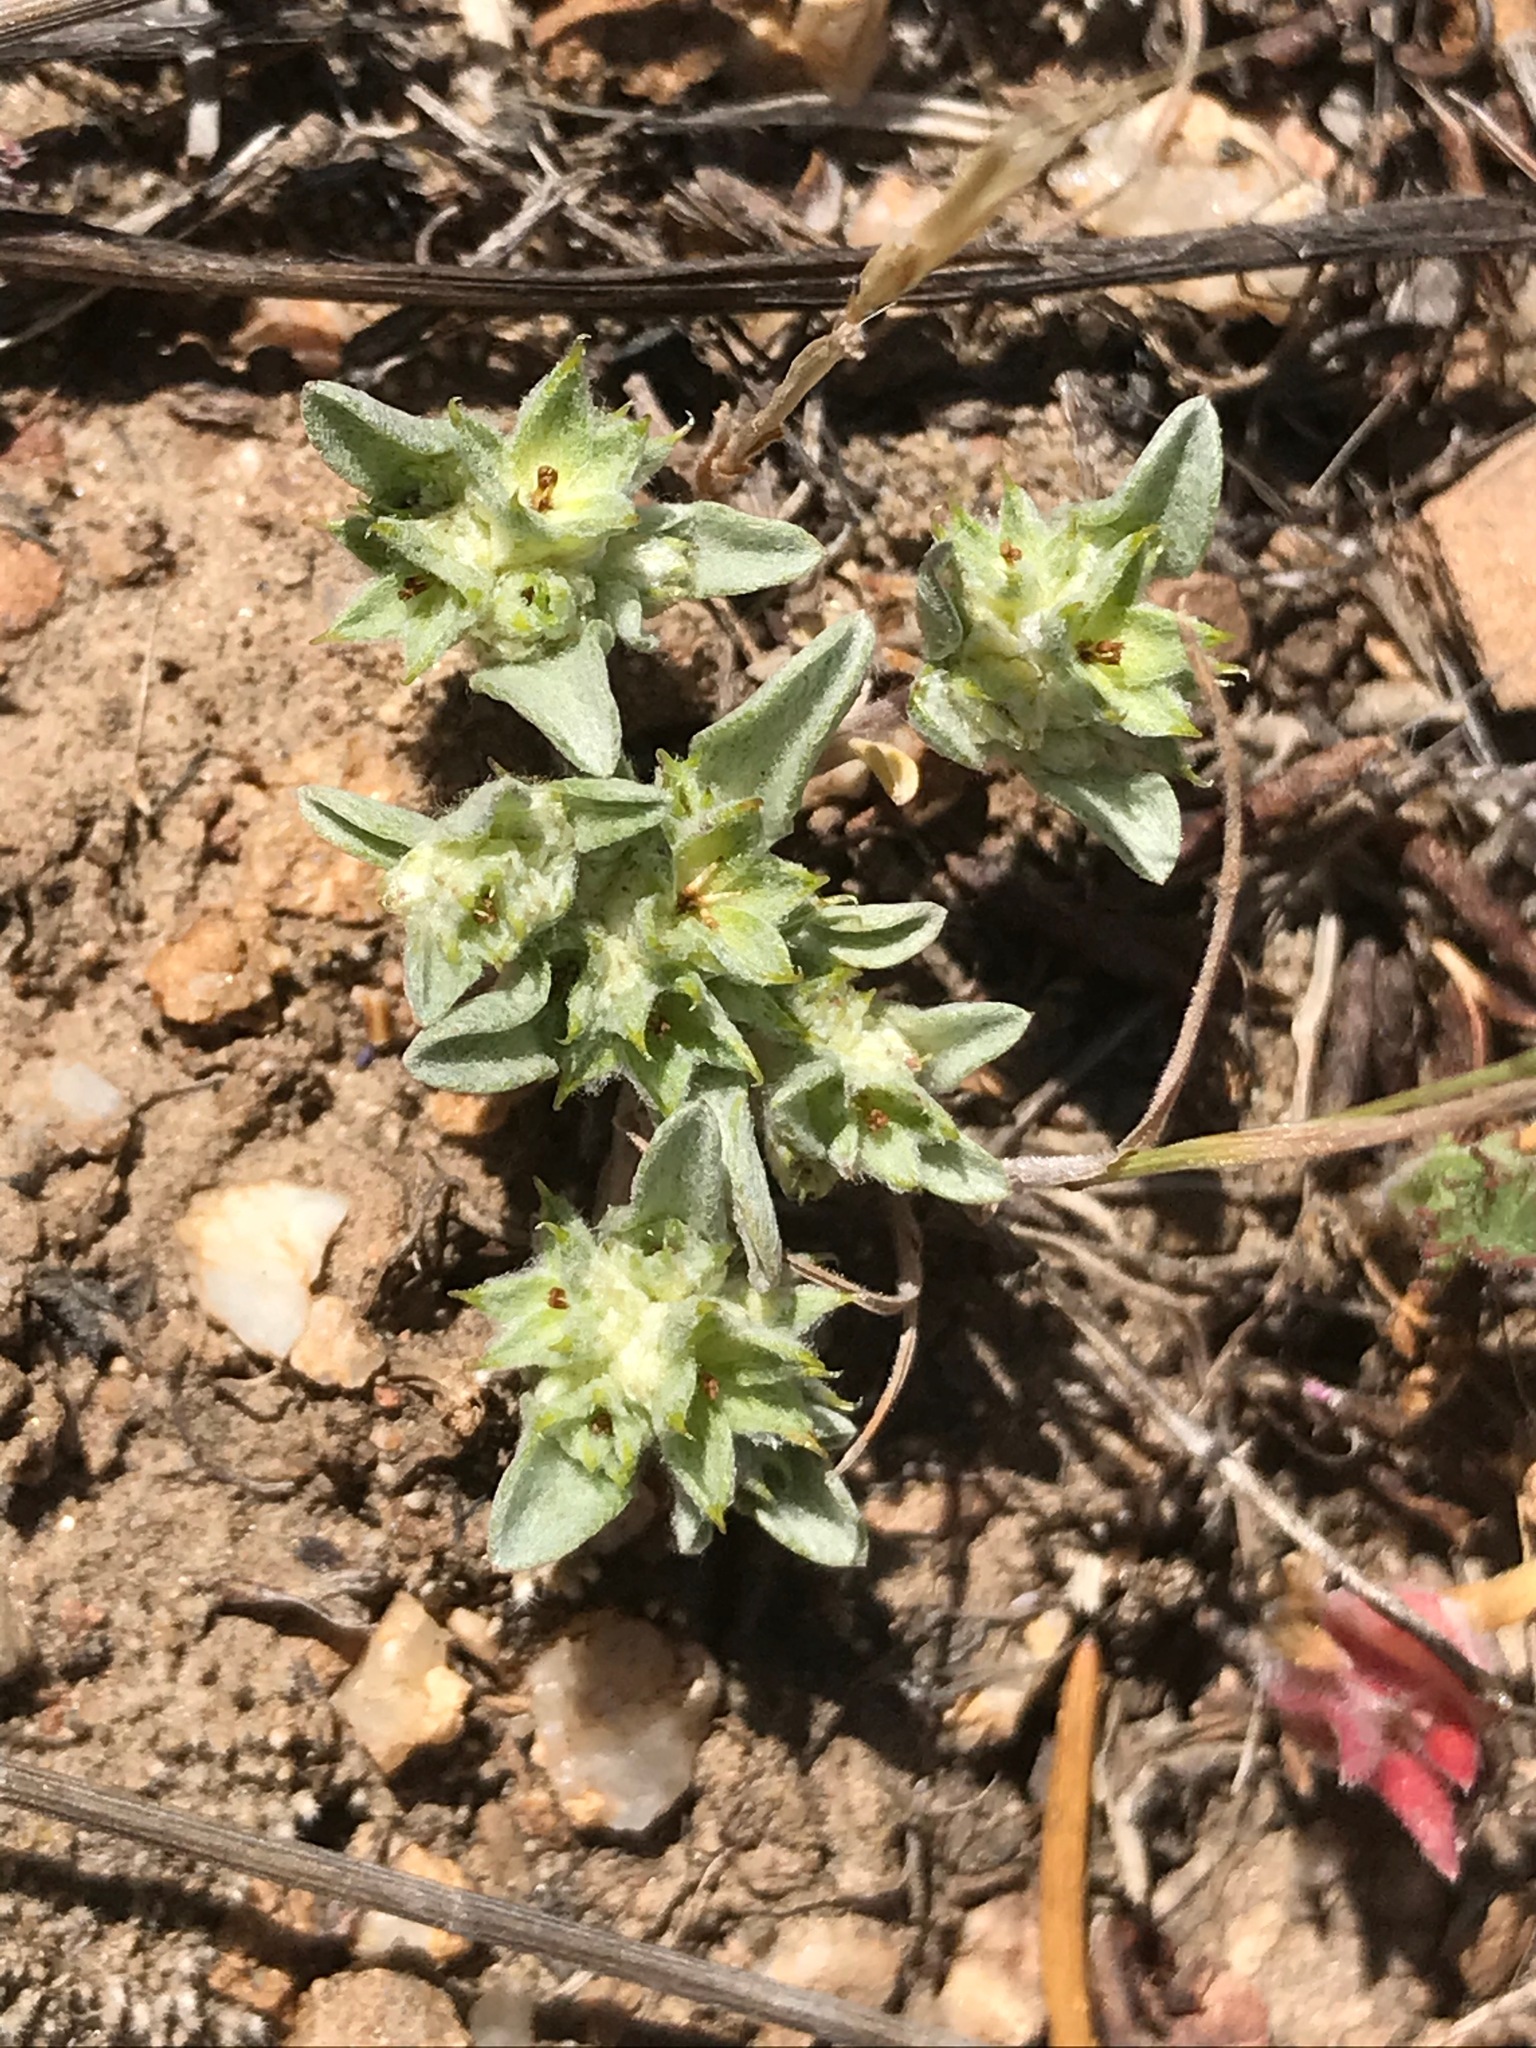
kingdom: Plantae
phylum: Tracheophyta
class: Magnoliopsida
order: Asterales
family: Asteraceae
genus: Ancistrocarphus
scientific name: Ancistrocarphus filagineus
